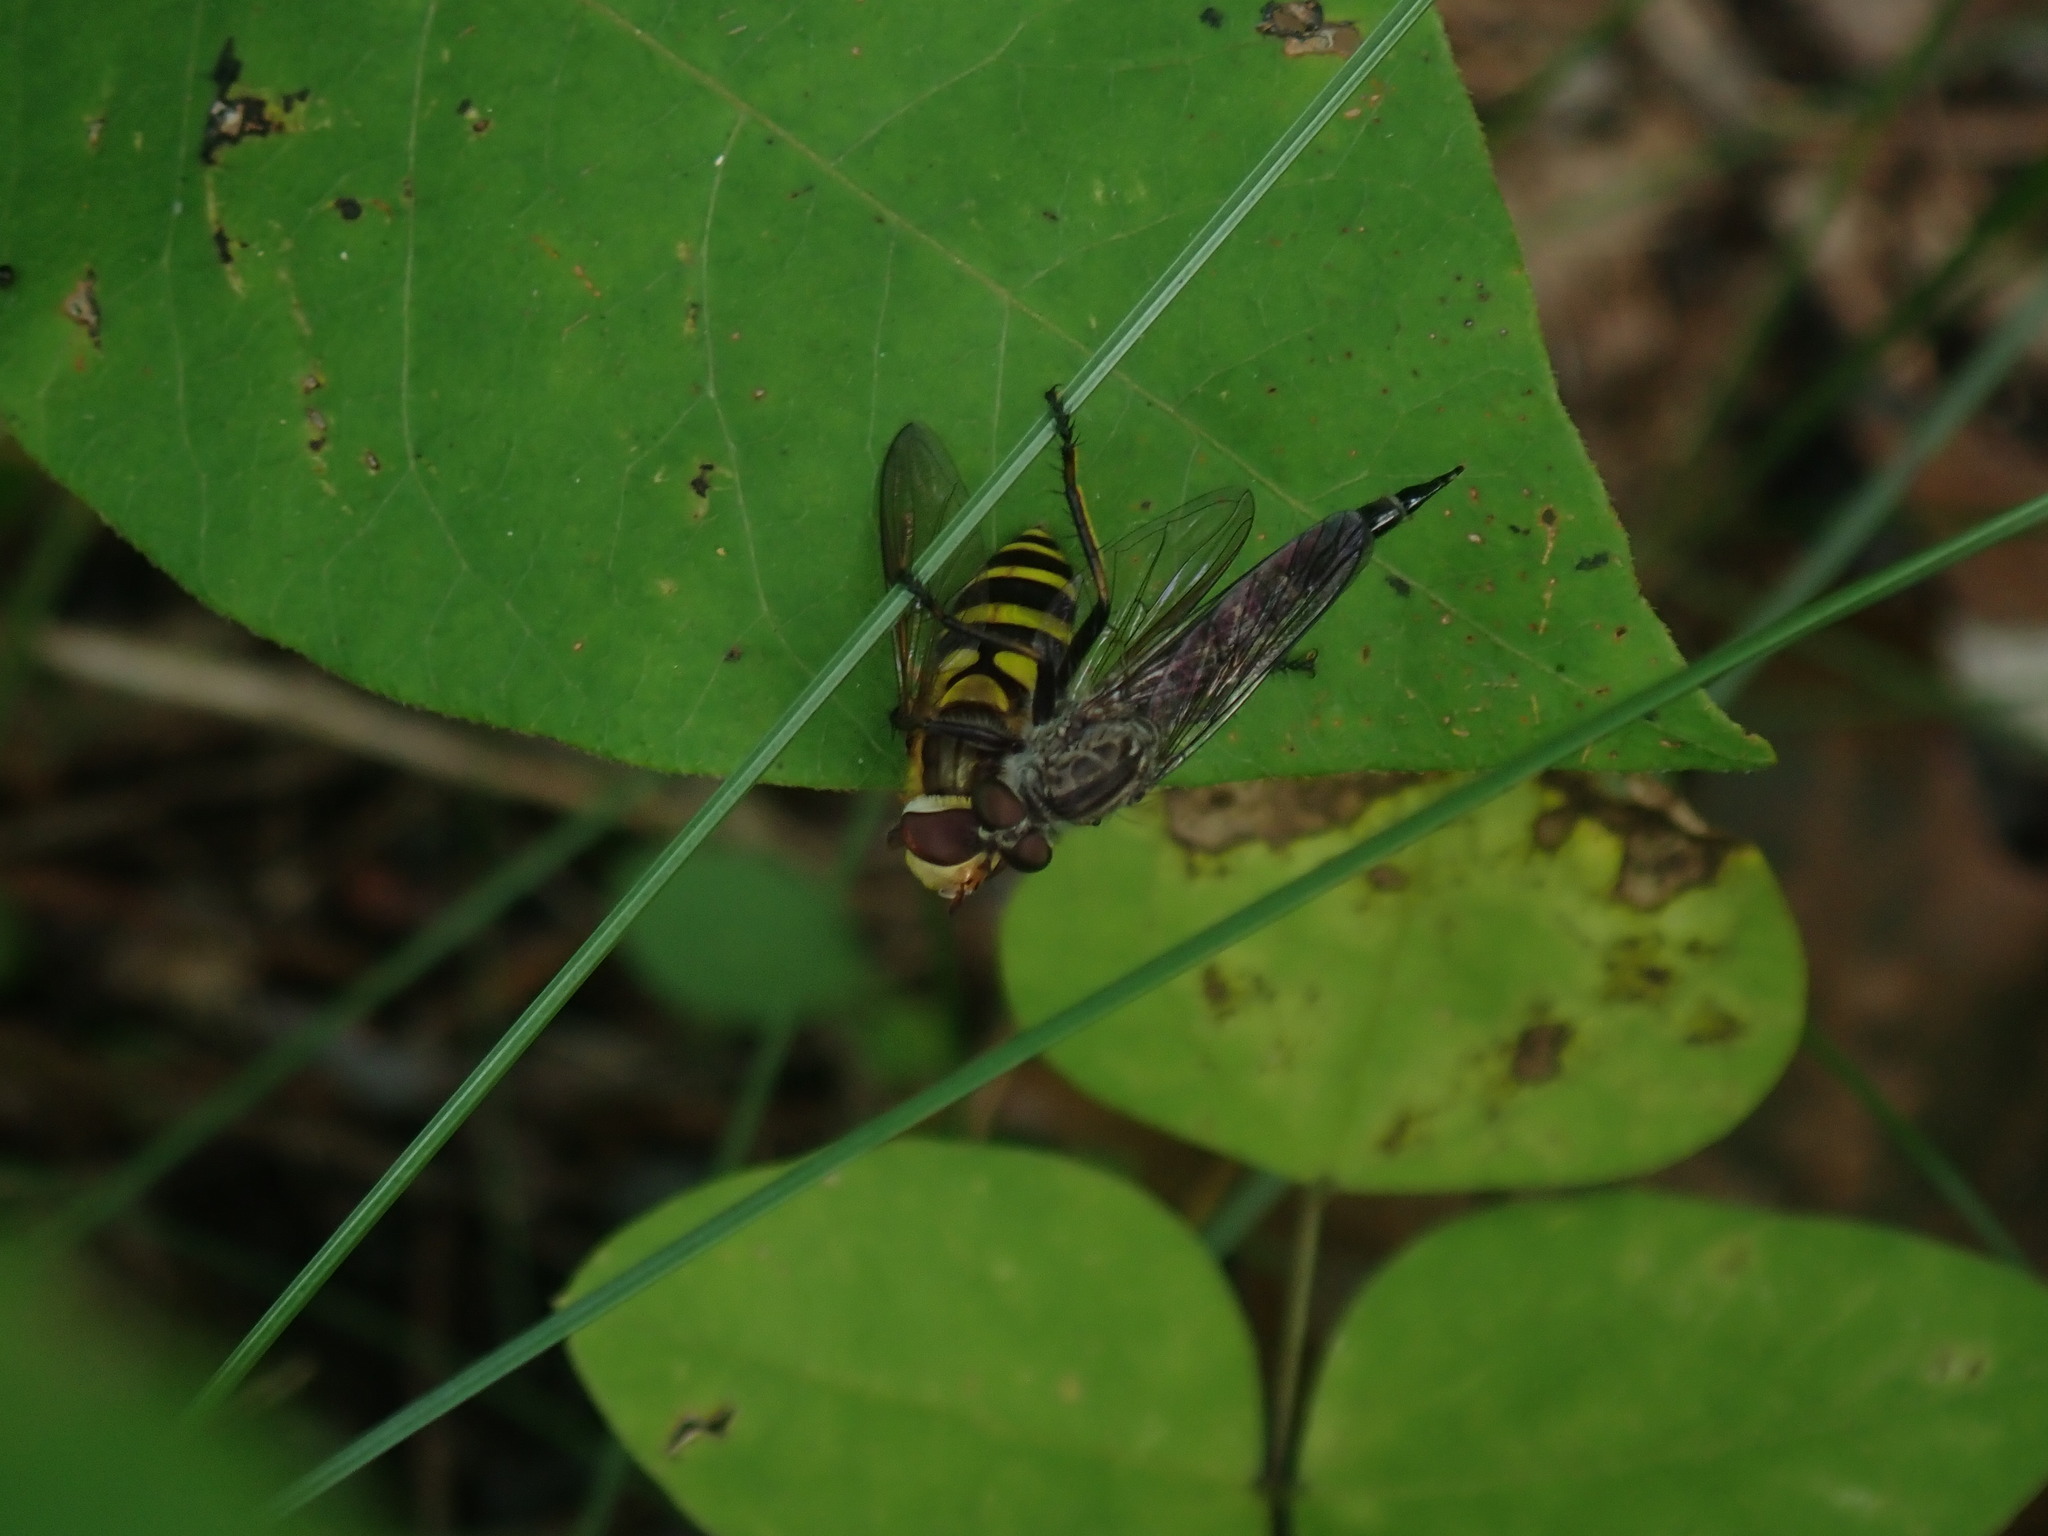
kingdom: Animalia
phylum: Arthropoda
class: Insecta
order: Diptera
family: Syrphidae
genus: Syrphus
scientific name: Syrphus
